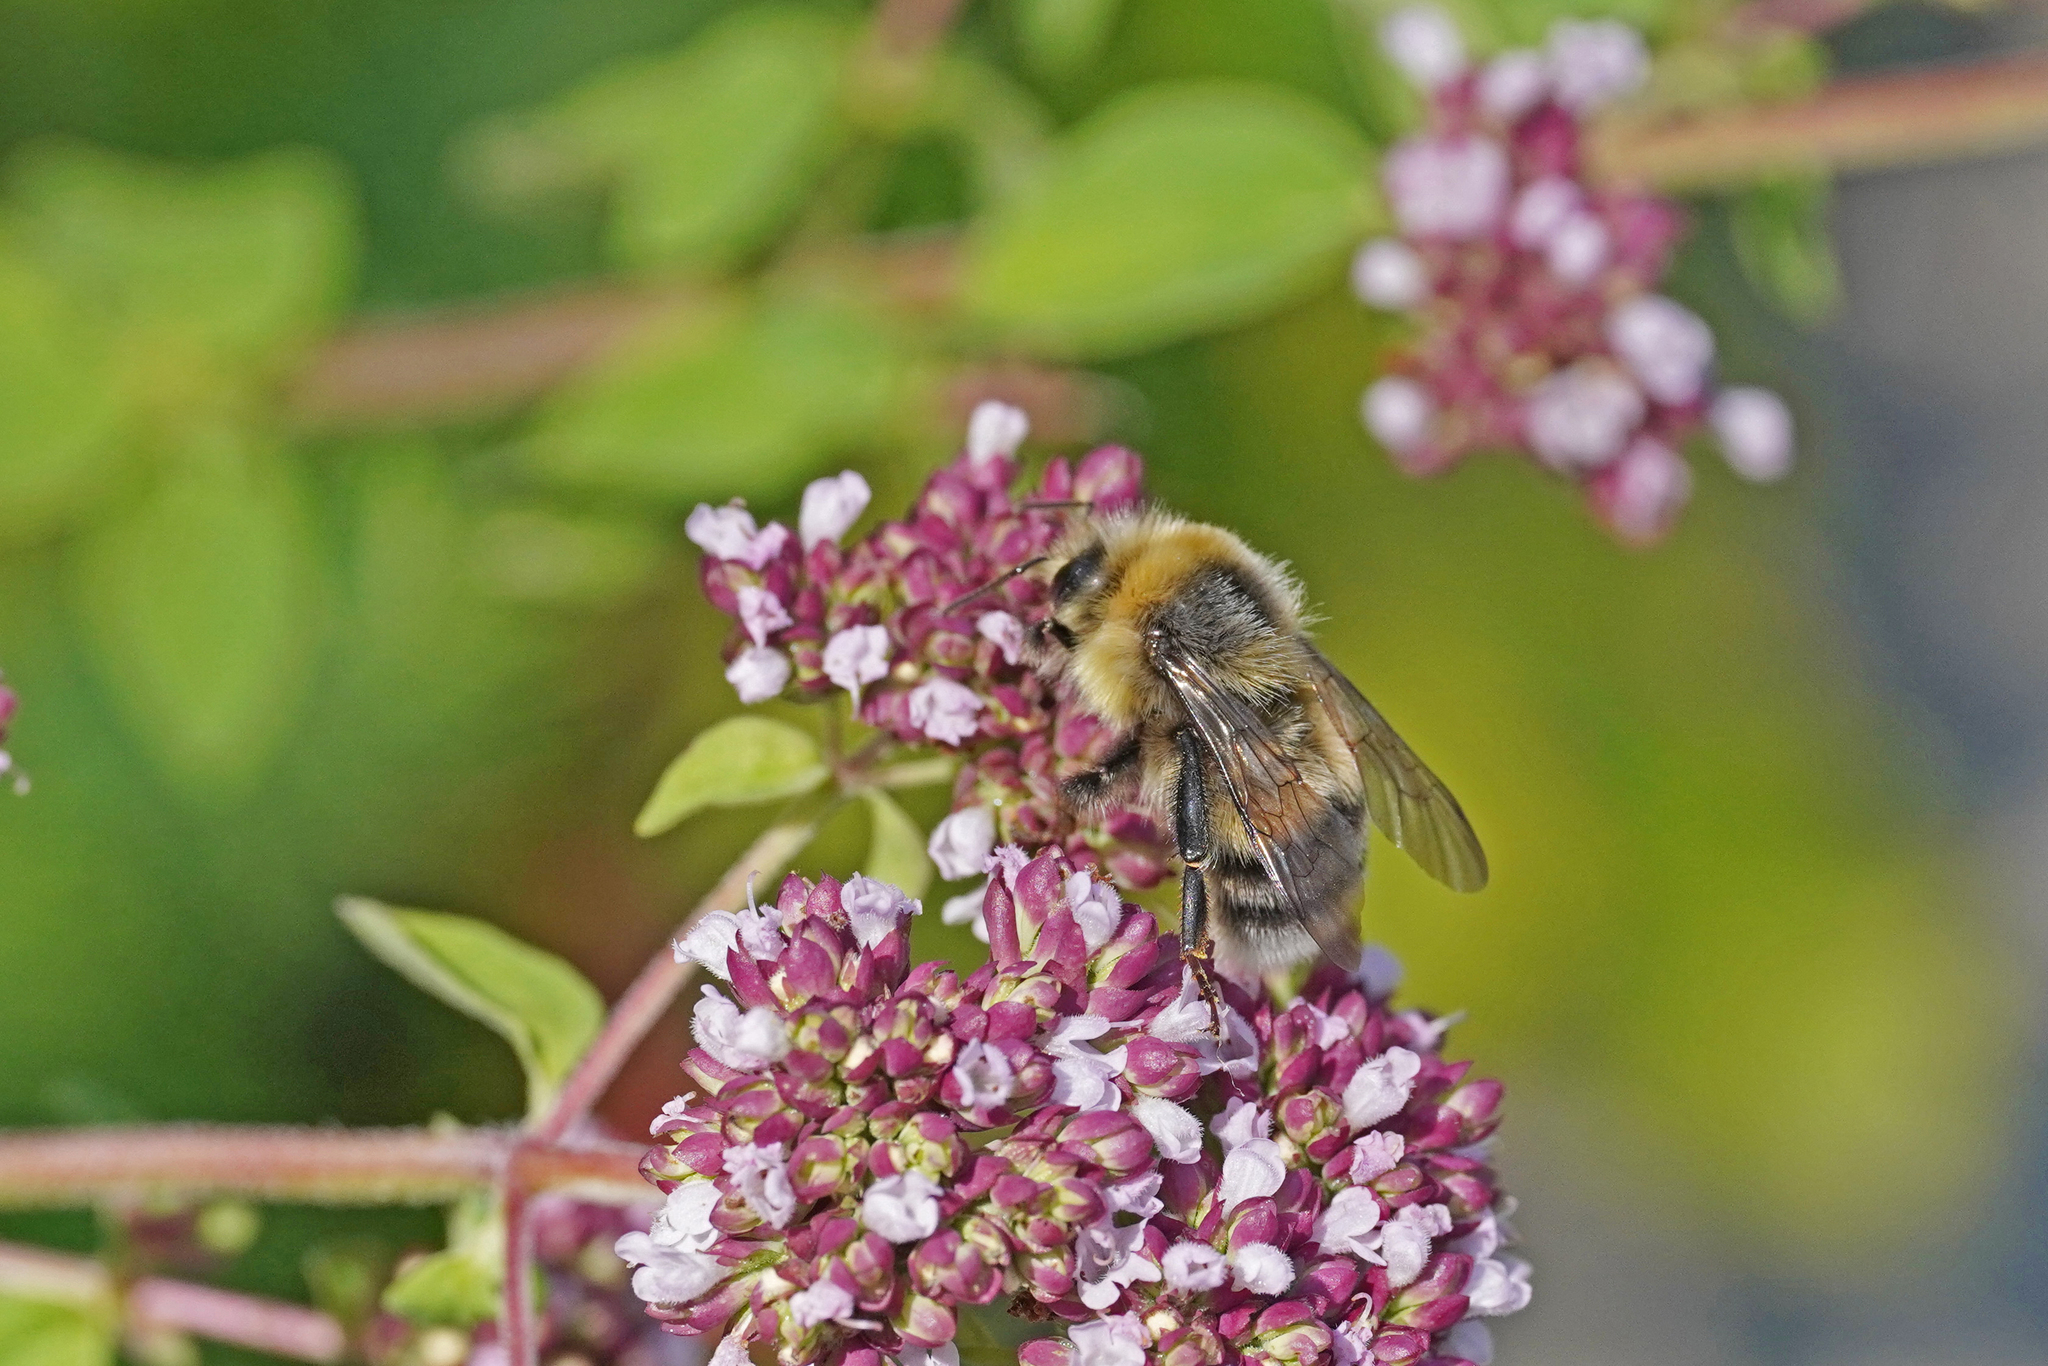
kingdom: Animalia
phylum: Arthropoda
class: Insecta
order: Hymenoptera
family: Apidae
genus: Bombus
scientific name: Bombus lucorum
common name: White-tailed bumblebee
